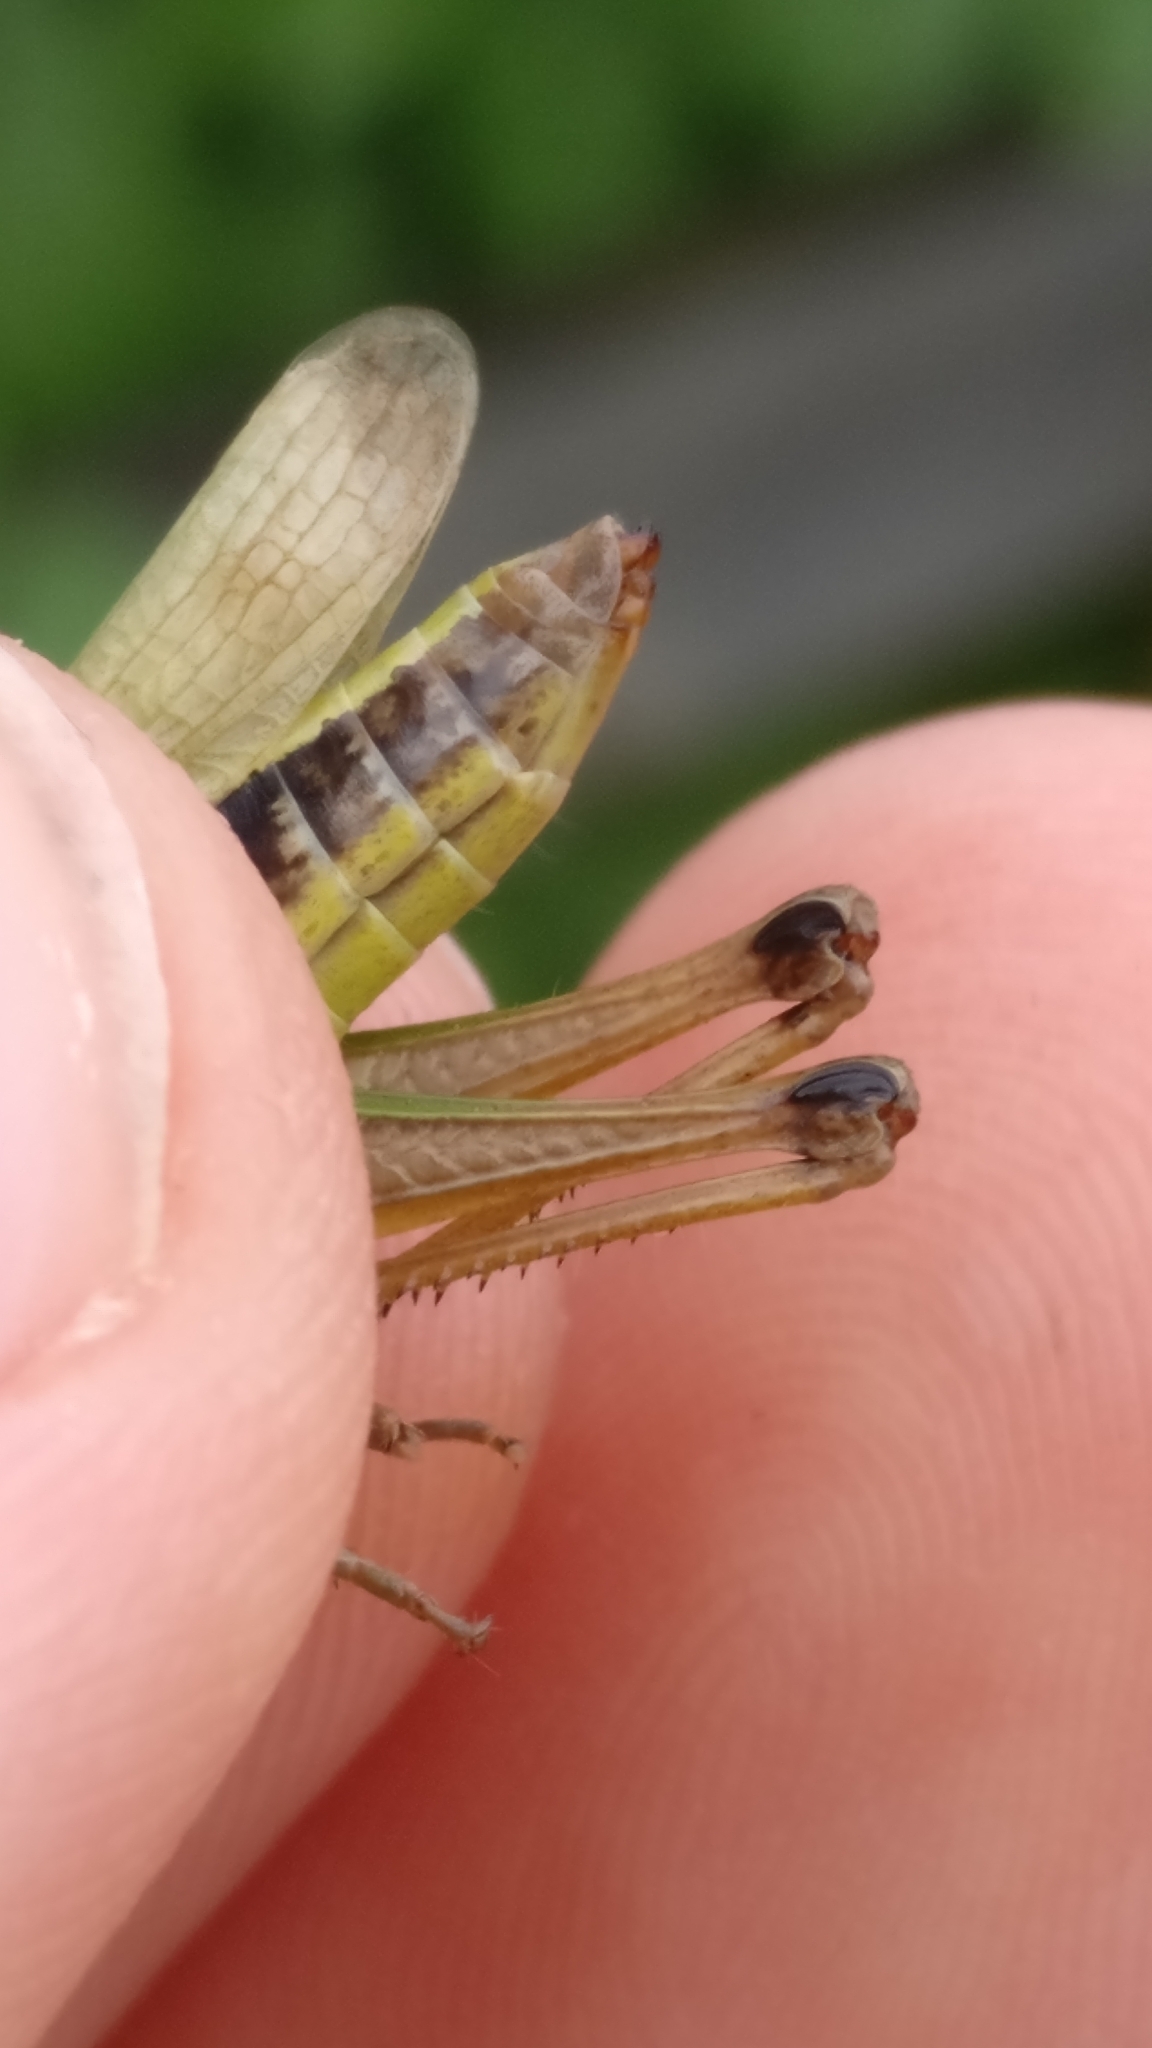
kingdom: Animalia
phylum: Arthropoda
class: Insecta
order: Orthoptera
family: Acrididae
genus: Pseudochorthippus
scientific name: Pseudochorthippus parallelus
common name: Meadow grasshopper
